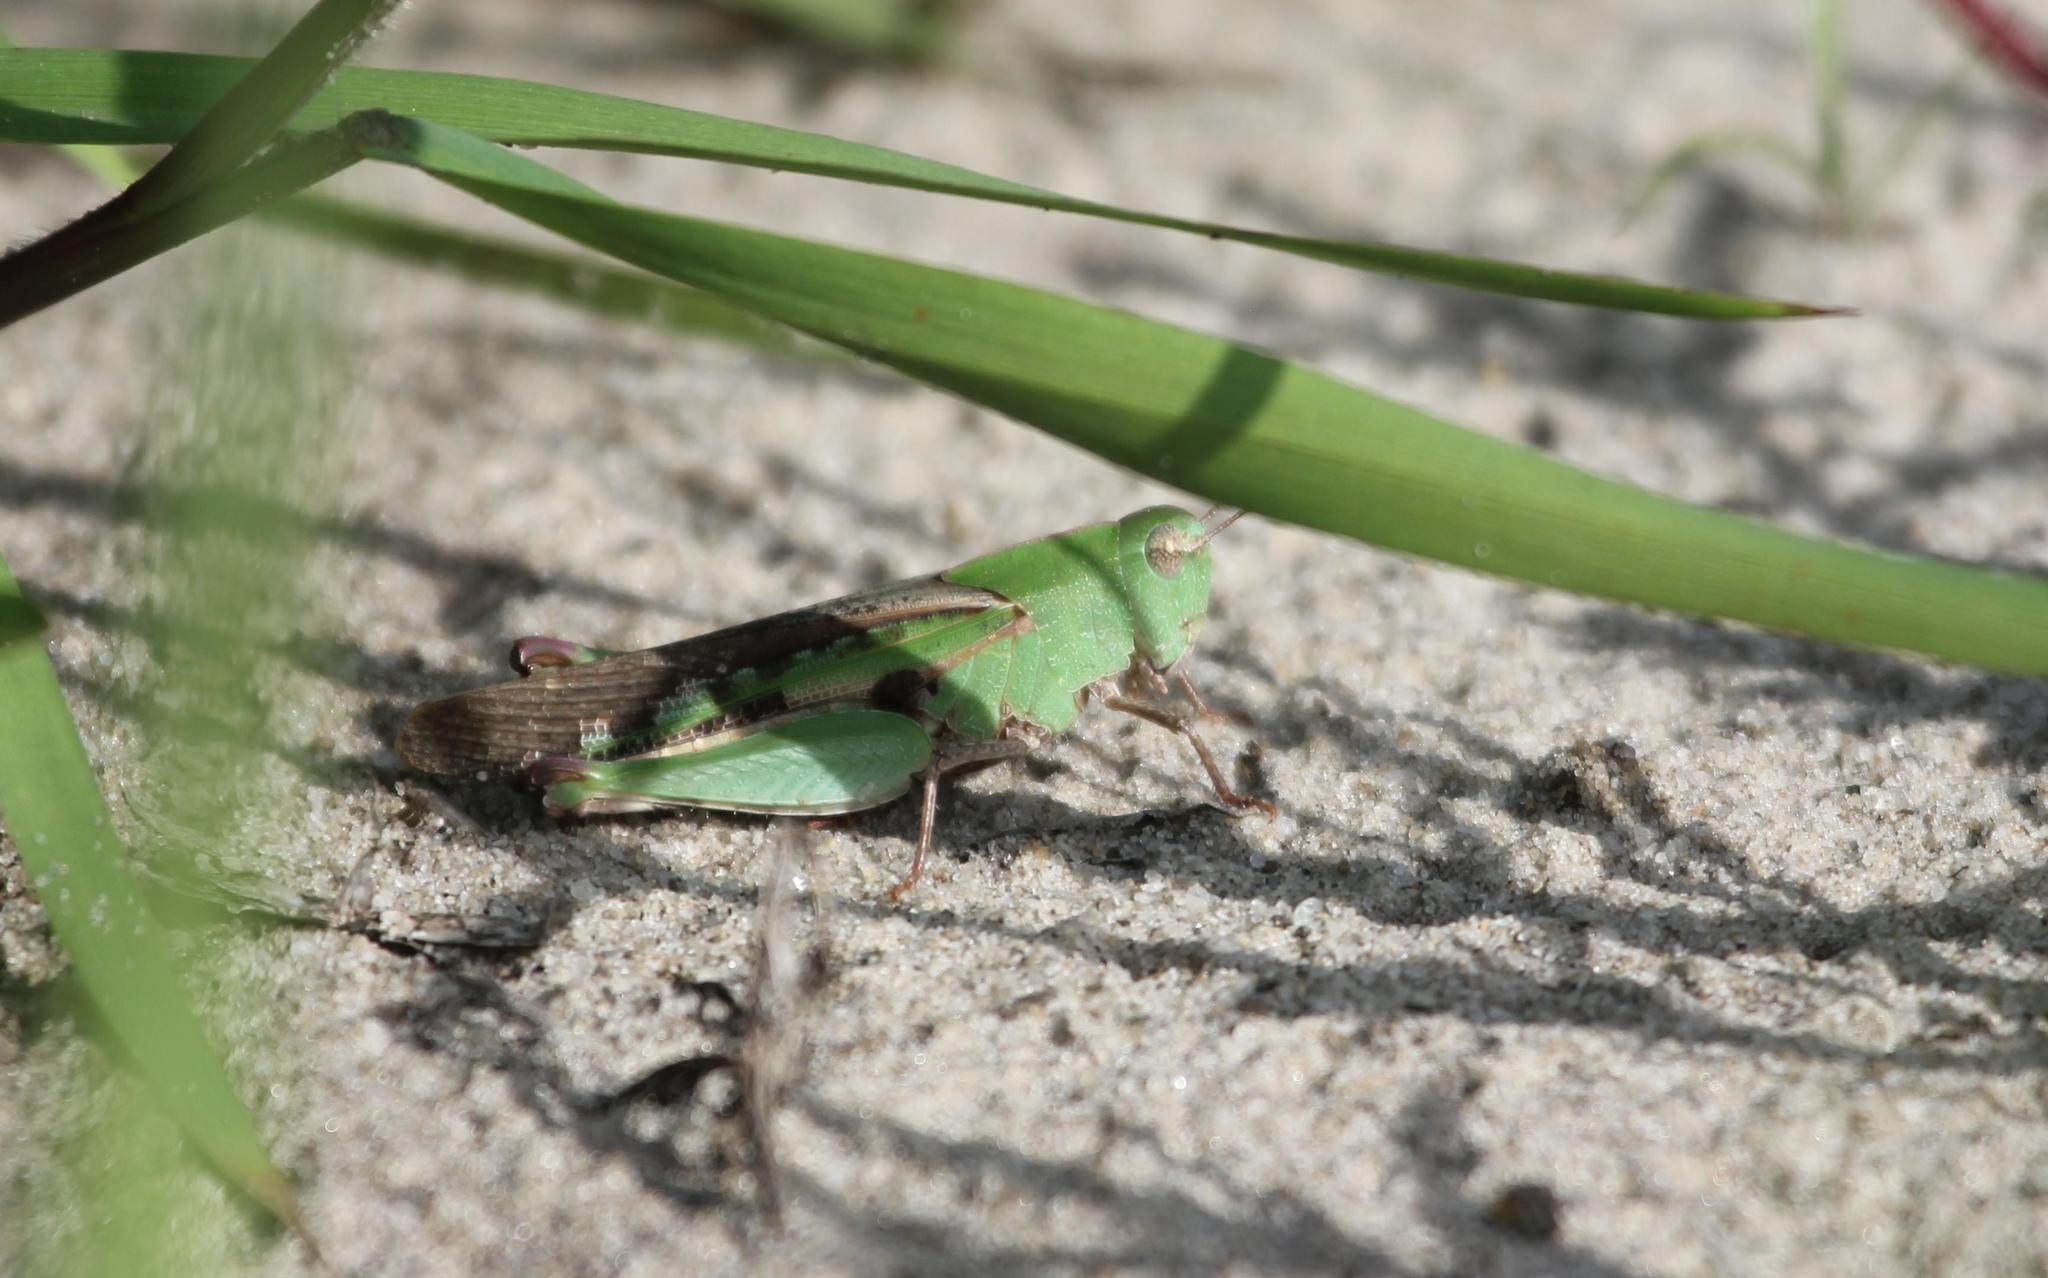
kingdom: Animalia
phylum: Arthropoda
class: Insecta
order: Orthoptera
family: Acrididae
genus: Chortophaga
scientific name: Chortophaga viridifasciata
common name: Green-striped grasshopper
